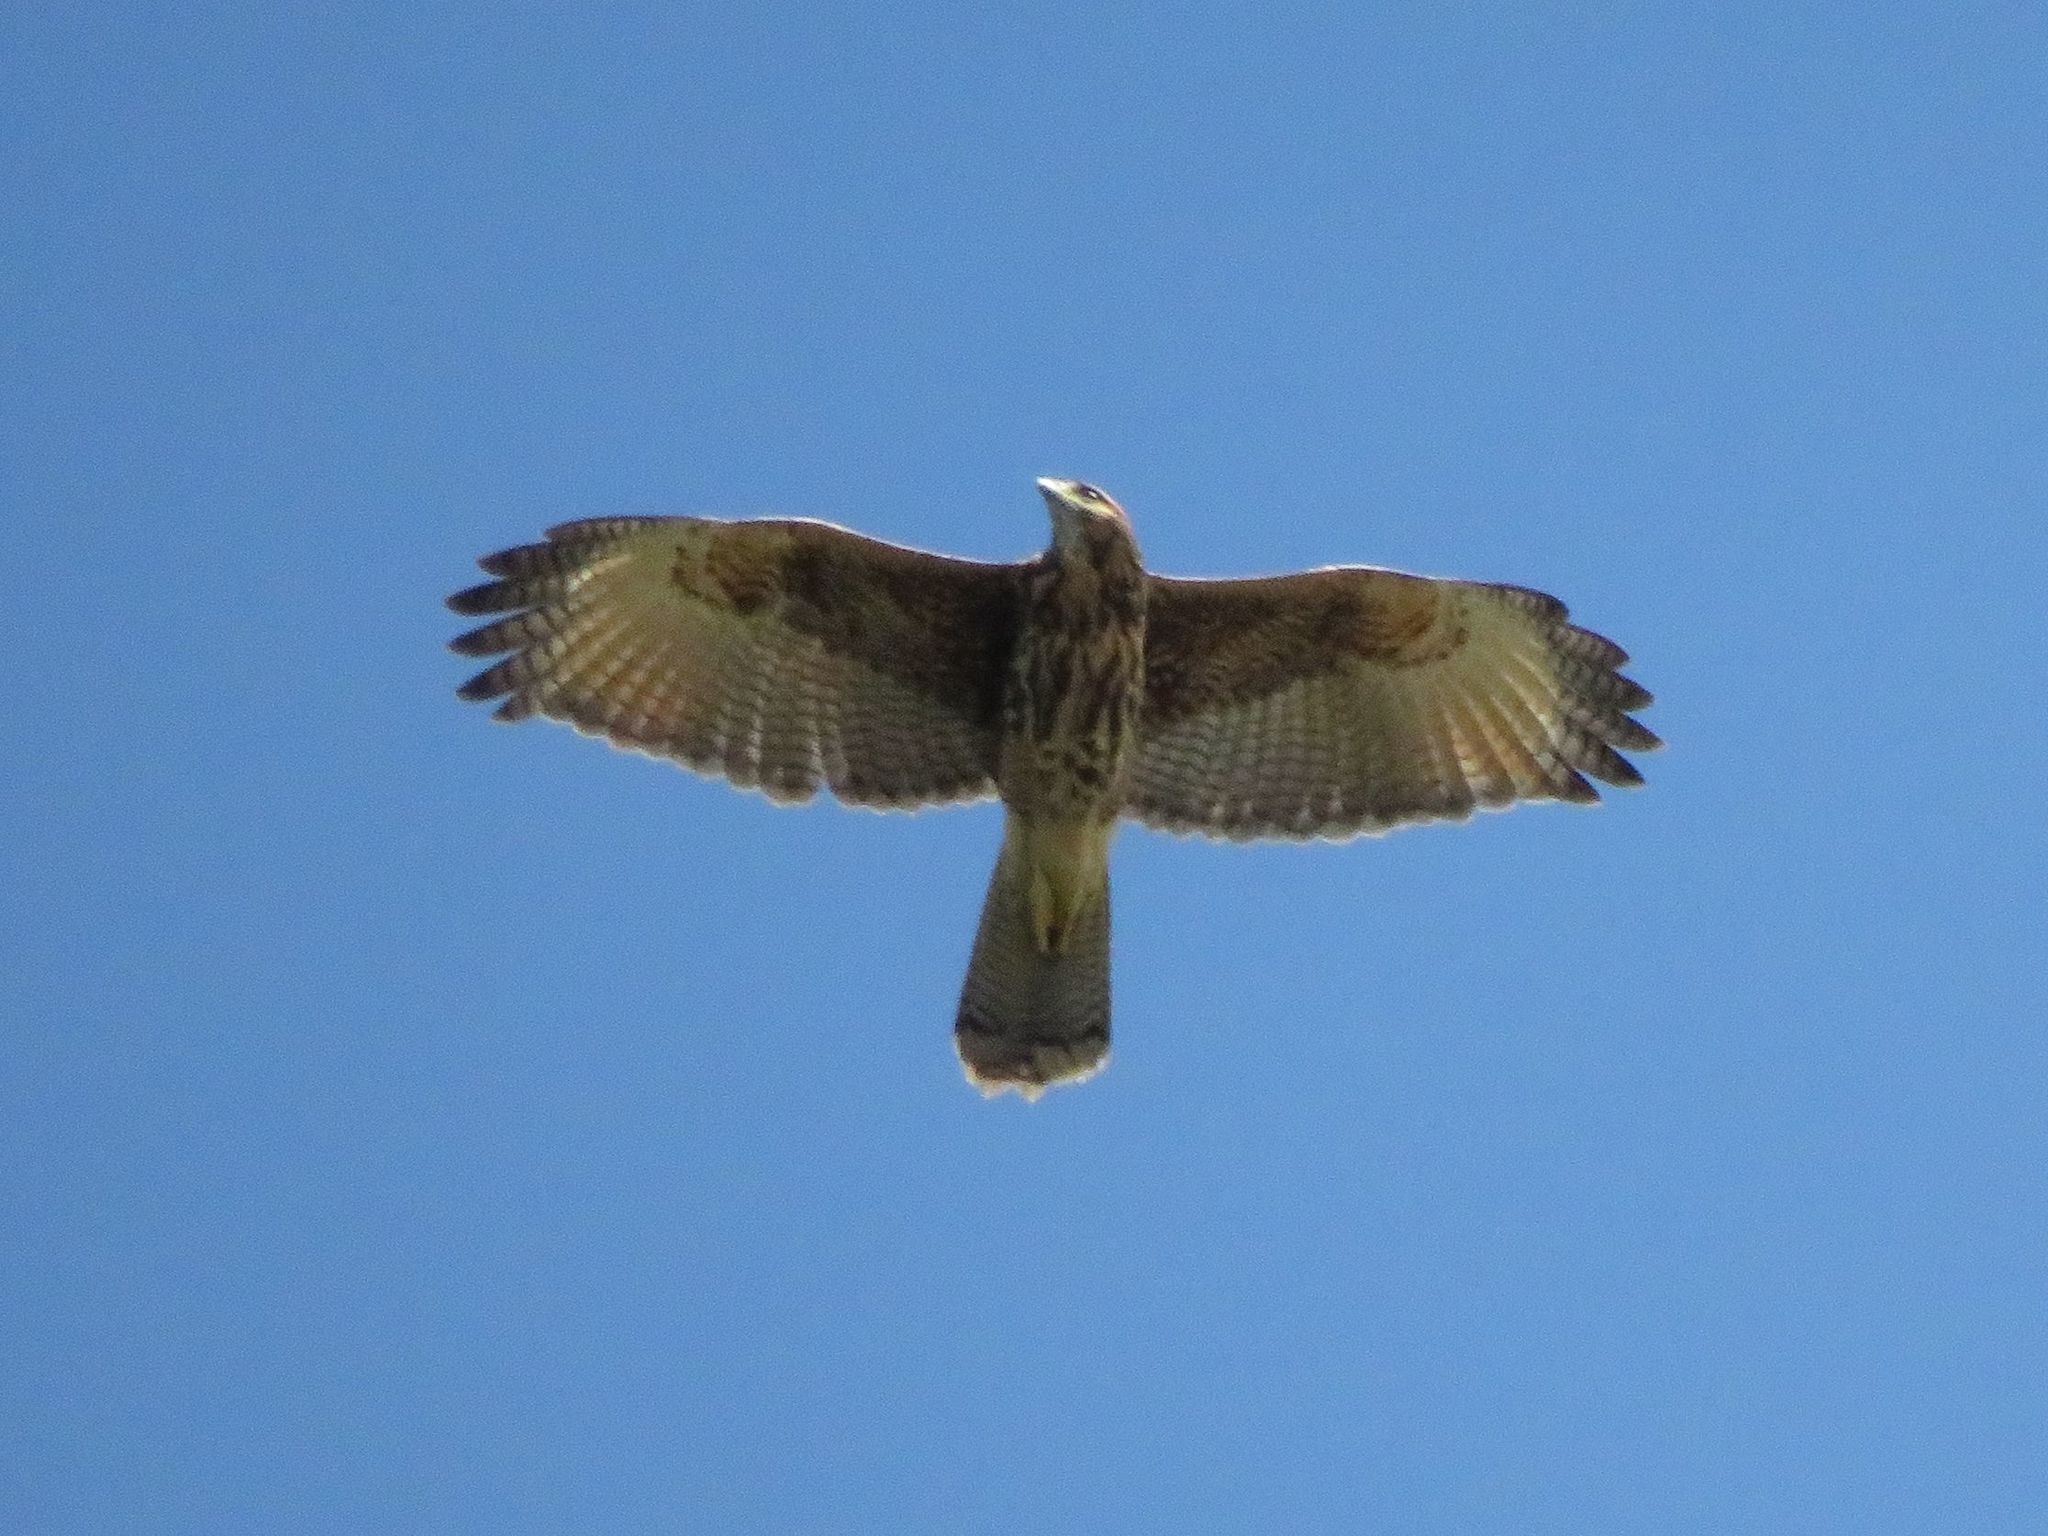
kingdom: Animalia
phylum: Chordata
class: Aves
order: Accipitriformes
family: Accipitridae
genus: Parabuteo
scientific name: Parabuteo unicinctus
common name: Harris's hawk
